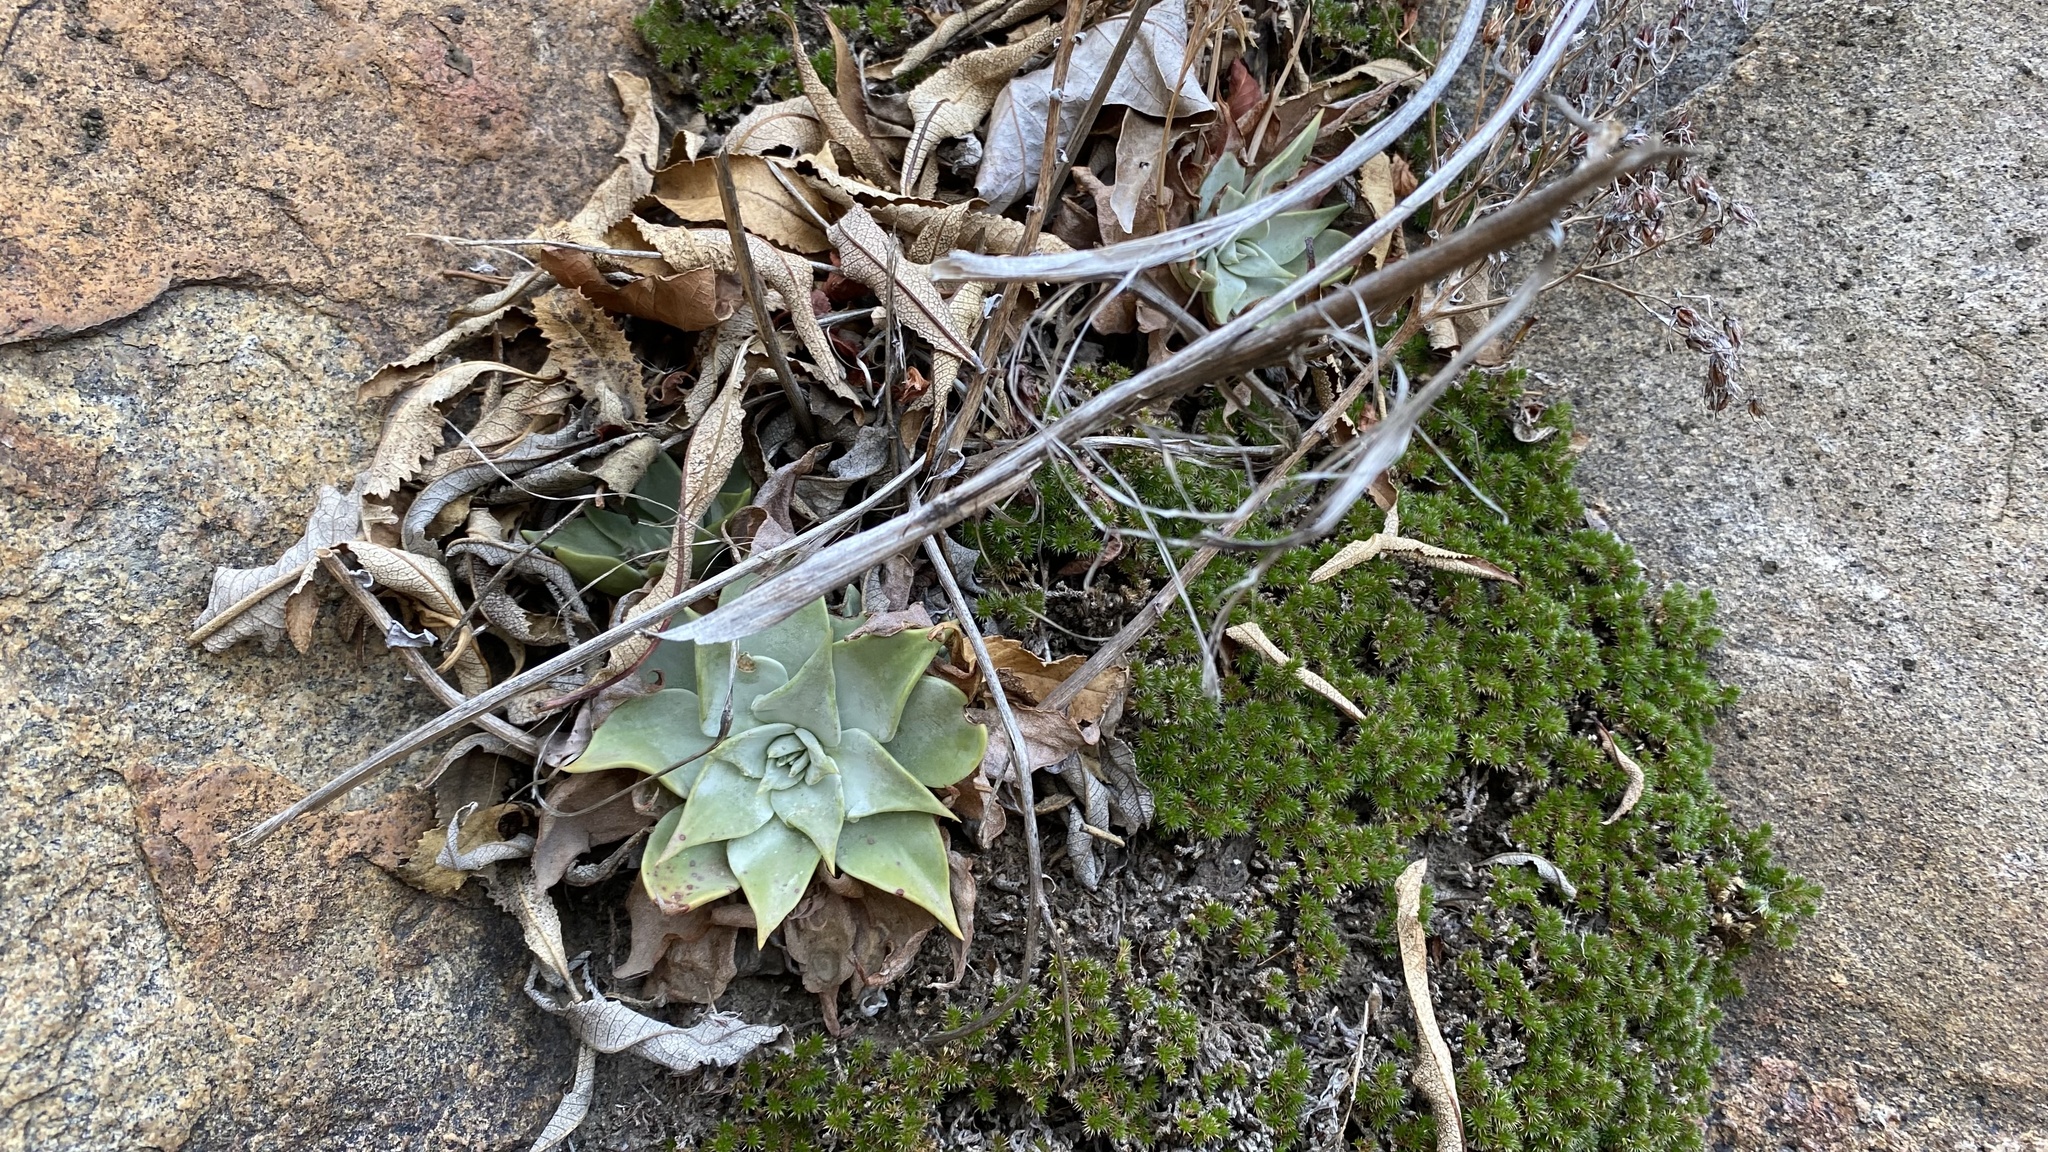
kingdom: Plantae
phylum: Tracheophyta
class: Magnoliopsida
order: Saxifragales
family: Crassulaceae
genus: Dudleya
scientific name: Dudleya cymosa
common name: Canyon dudleya
